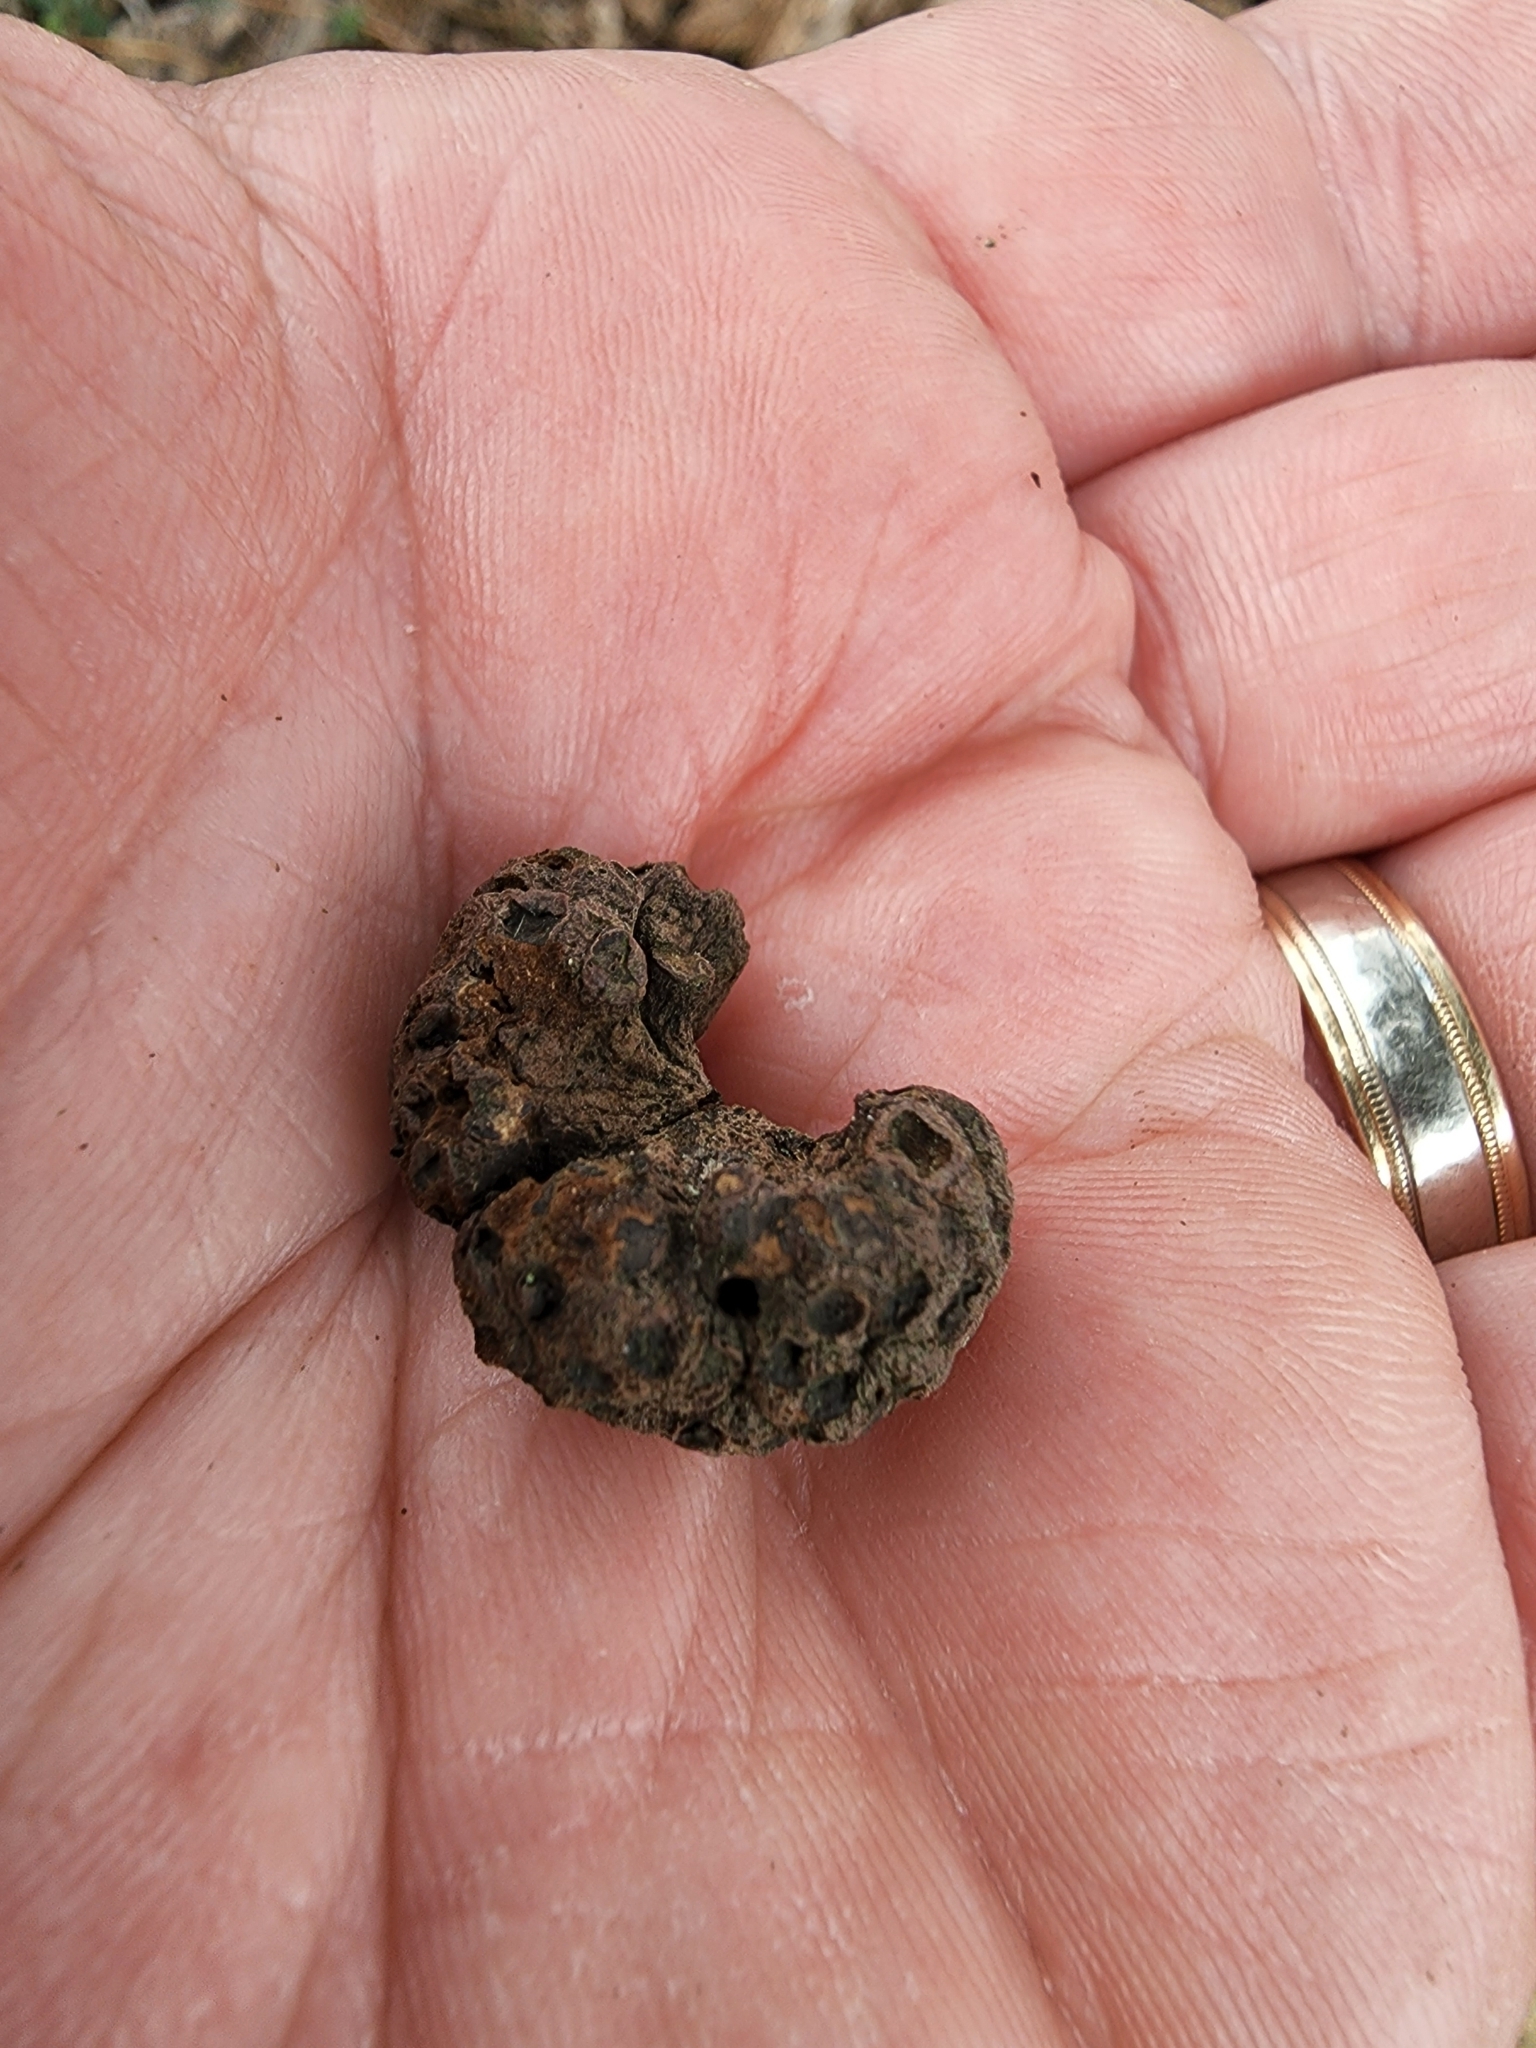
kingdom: Fungi
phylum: Basidiomycota
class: Pucciniomycetes
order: Pucciniales
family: Gymnosporangiaceae
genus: Gymnosporangium
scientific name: Gymnosporangium juniperi-virginianae
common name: Juniper-apple rust
